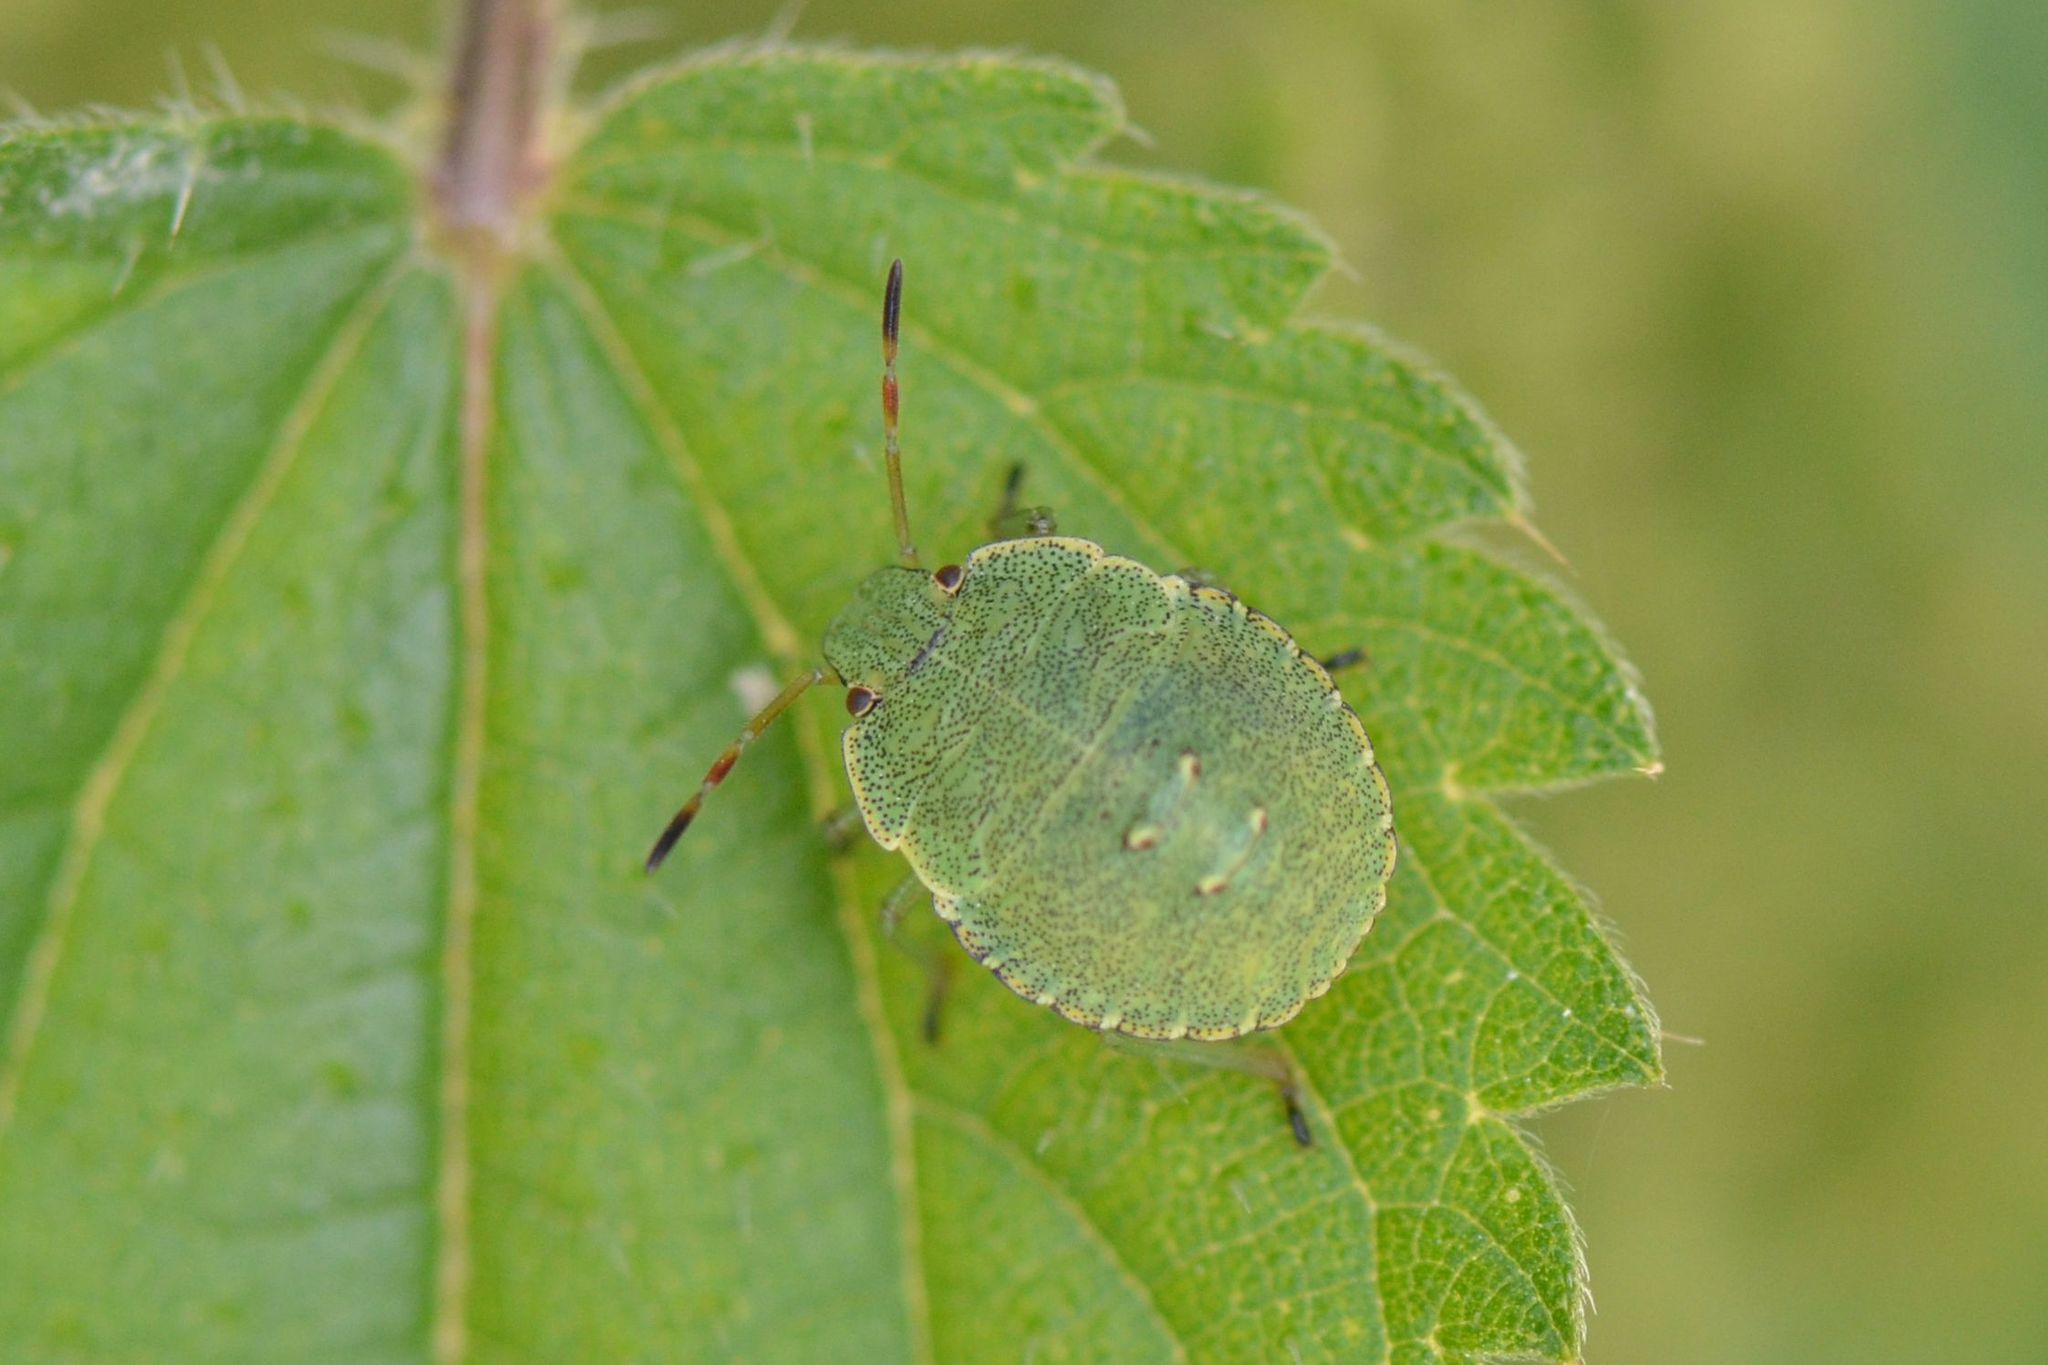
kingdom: Animalia
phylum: Arthropoda
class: Insecta
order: Hemiptera
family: Pentatomidae
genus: Palomena
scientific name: Palomena prasina
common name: Green shieldbug
